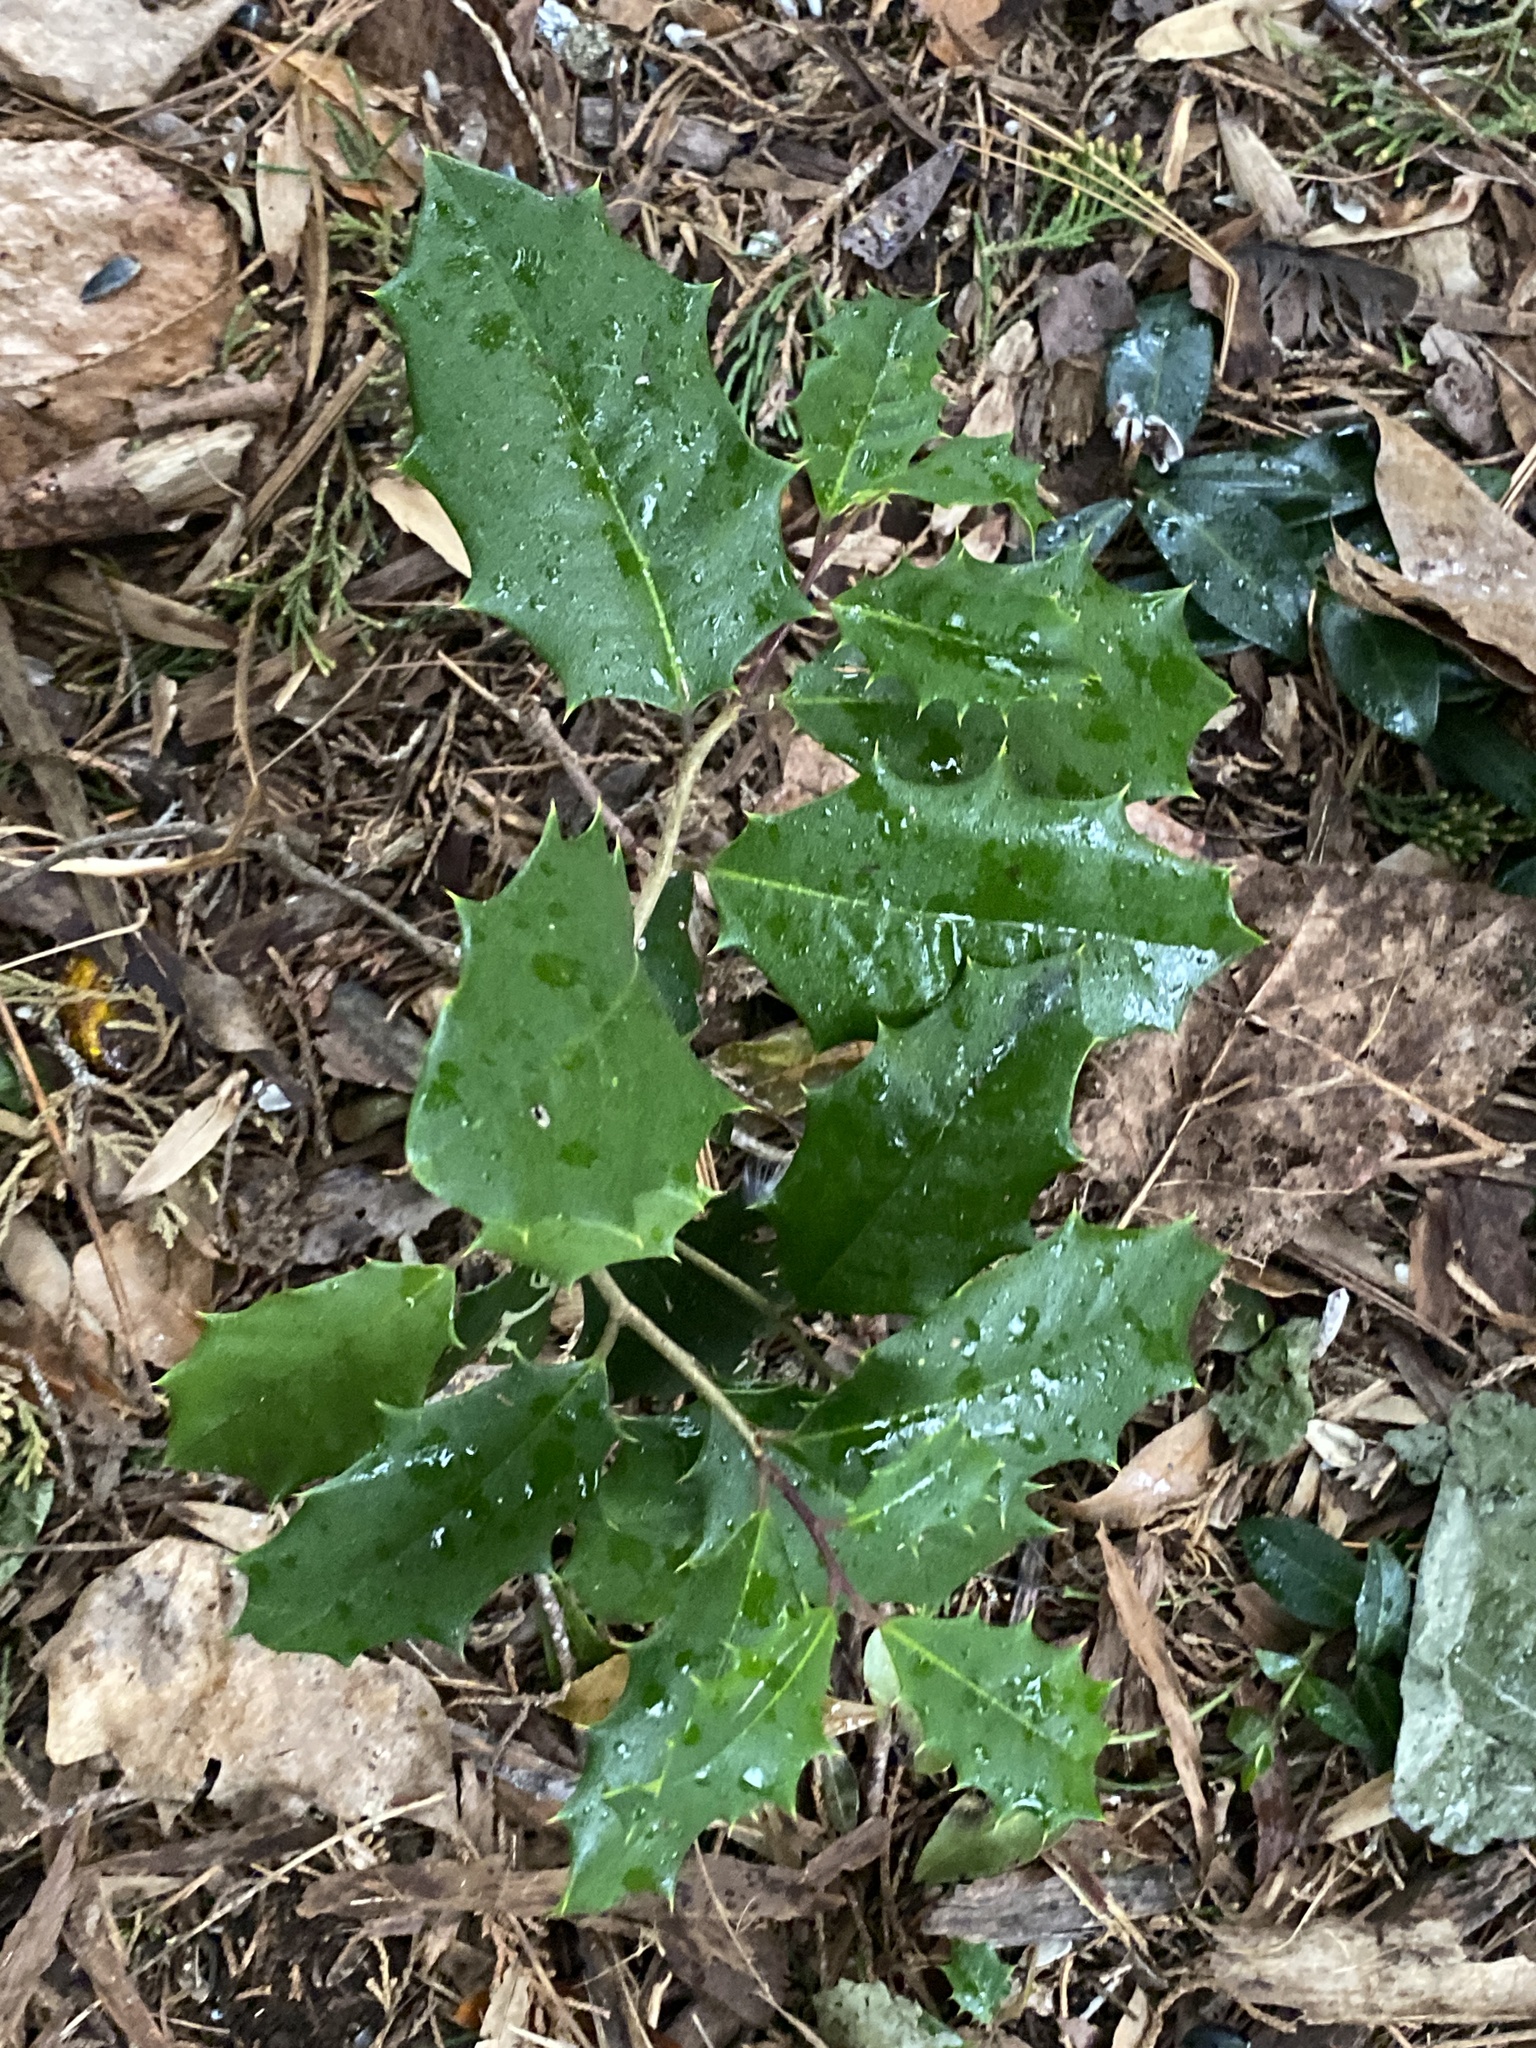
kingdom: Plantae
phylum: Tracheophyta
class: Magnoliopsida
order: Aquifoliales
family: Aquifoliaceae
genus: Ilex
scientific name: Ilex opaca
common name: American holly
